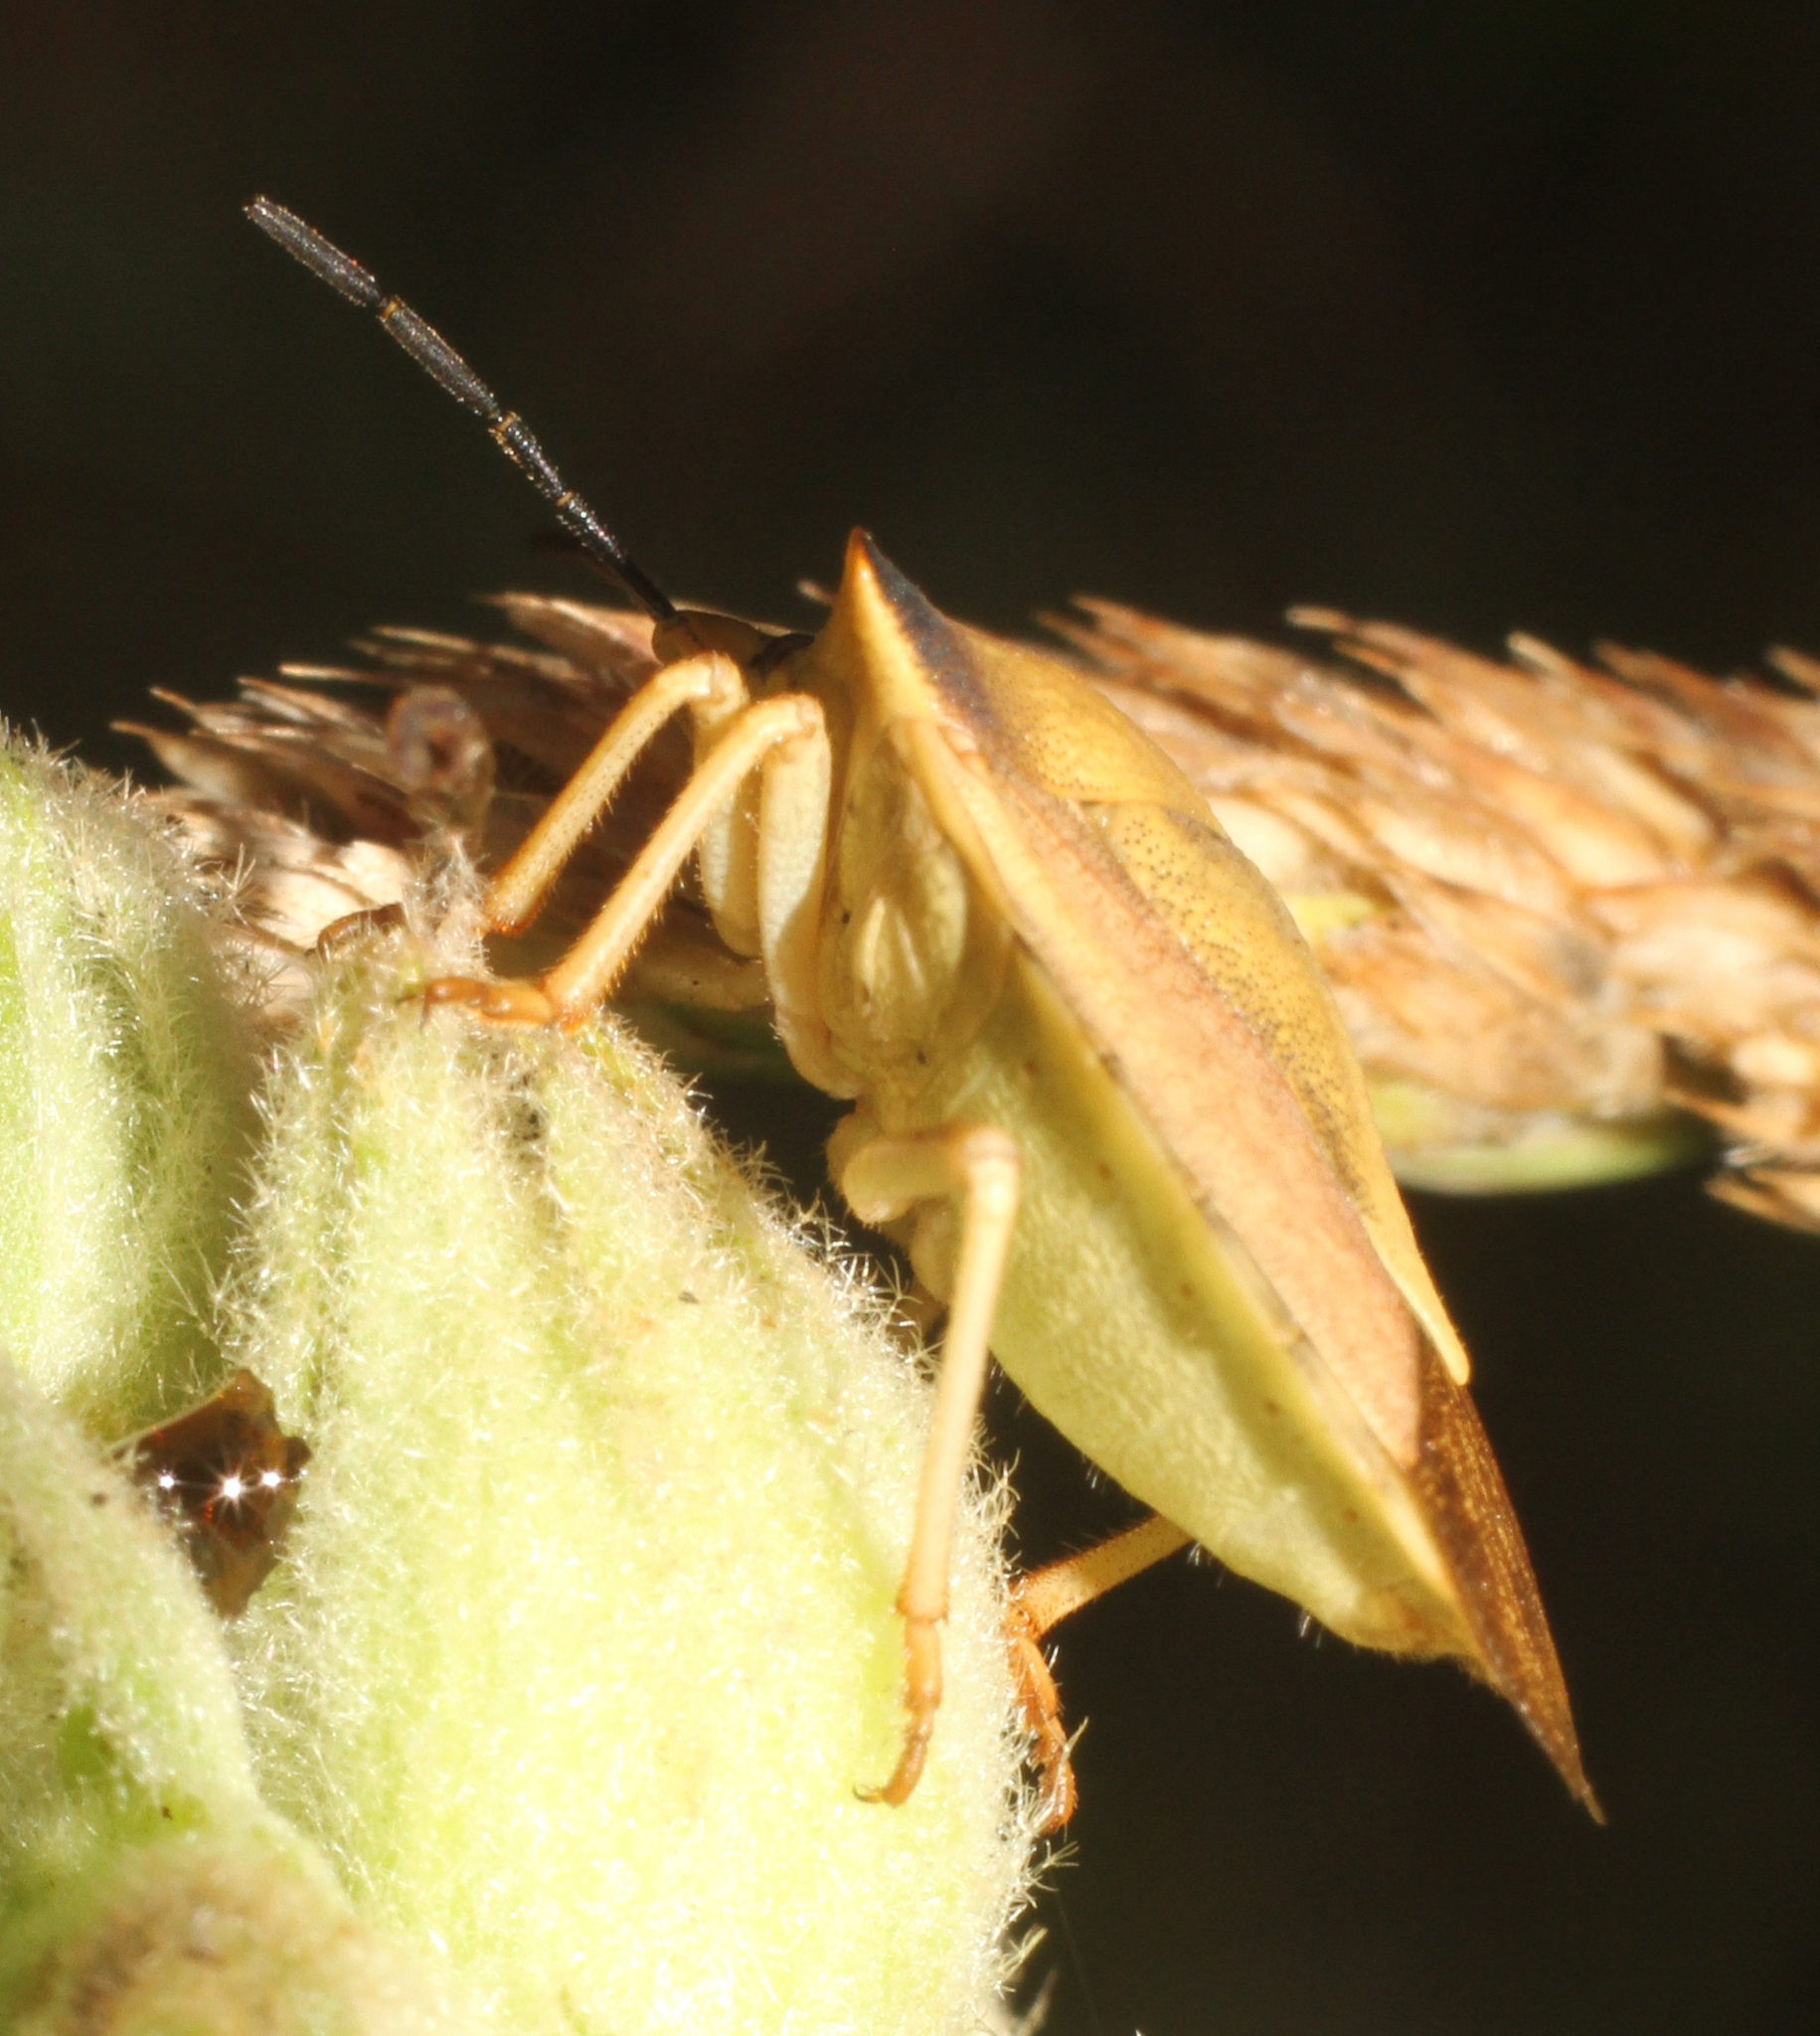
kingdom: Animalia
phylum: Arthropoda
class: Insecta
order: Hemiptera
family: Pentatomidae
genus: Carpocoris
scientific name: Carpocoris fuscispinus
